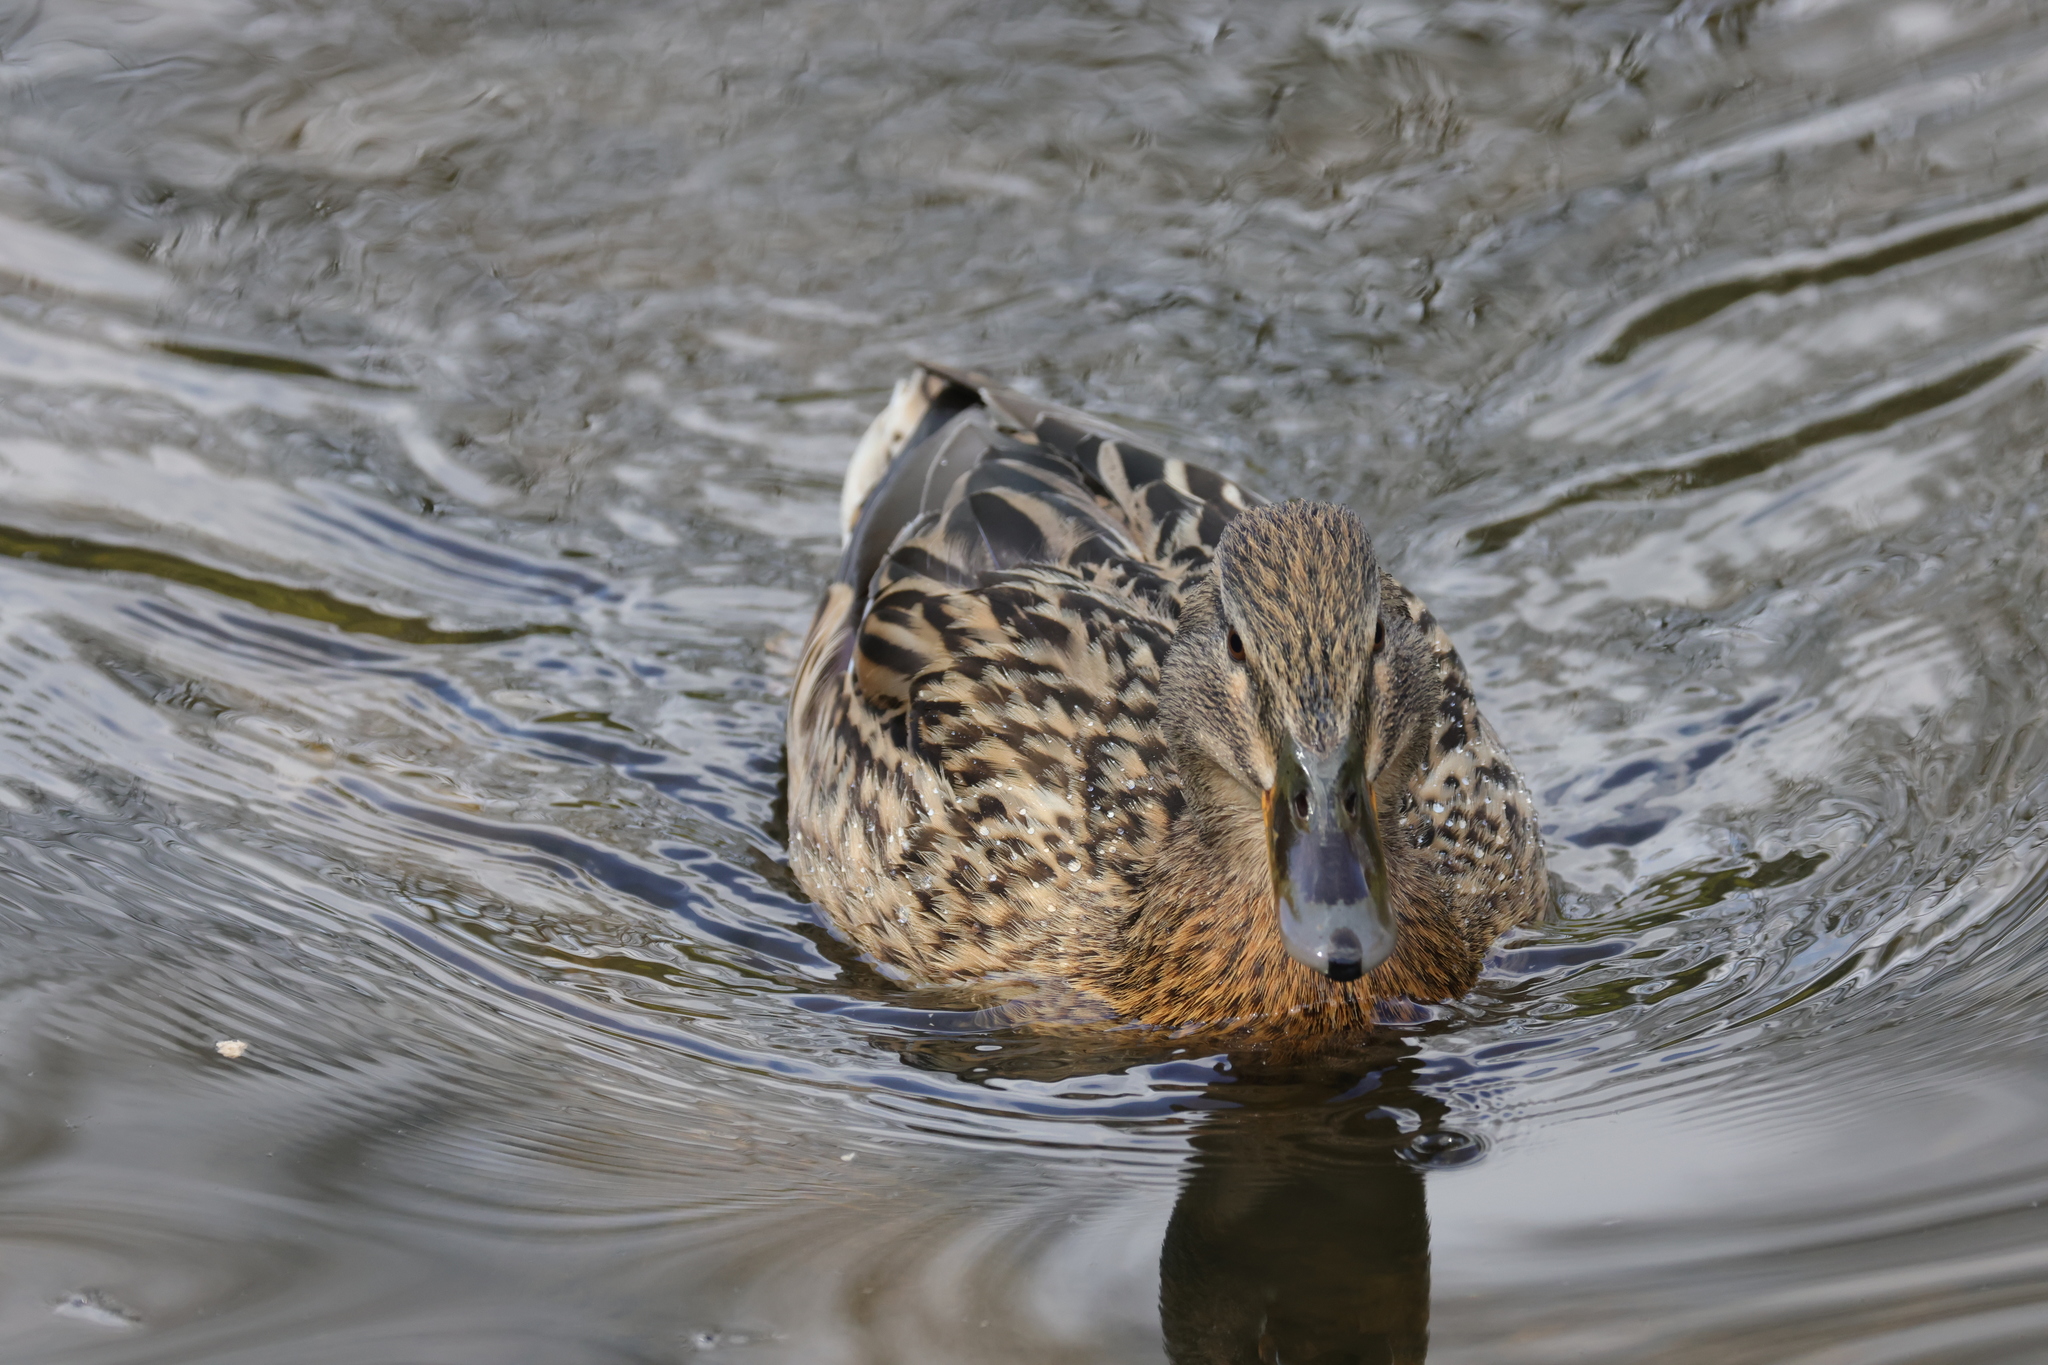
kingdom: Animalia
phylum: Chordata
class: Aves
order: Anseriformes
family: Anatidae
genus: Anas
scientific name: Anas platyrhynchos
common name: Mallard
